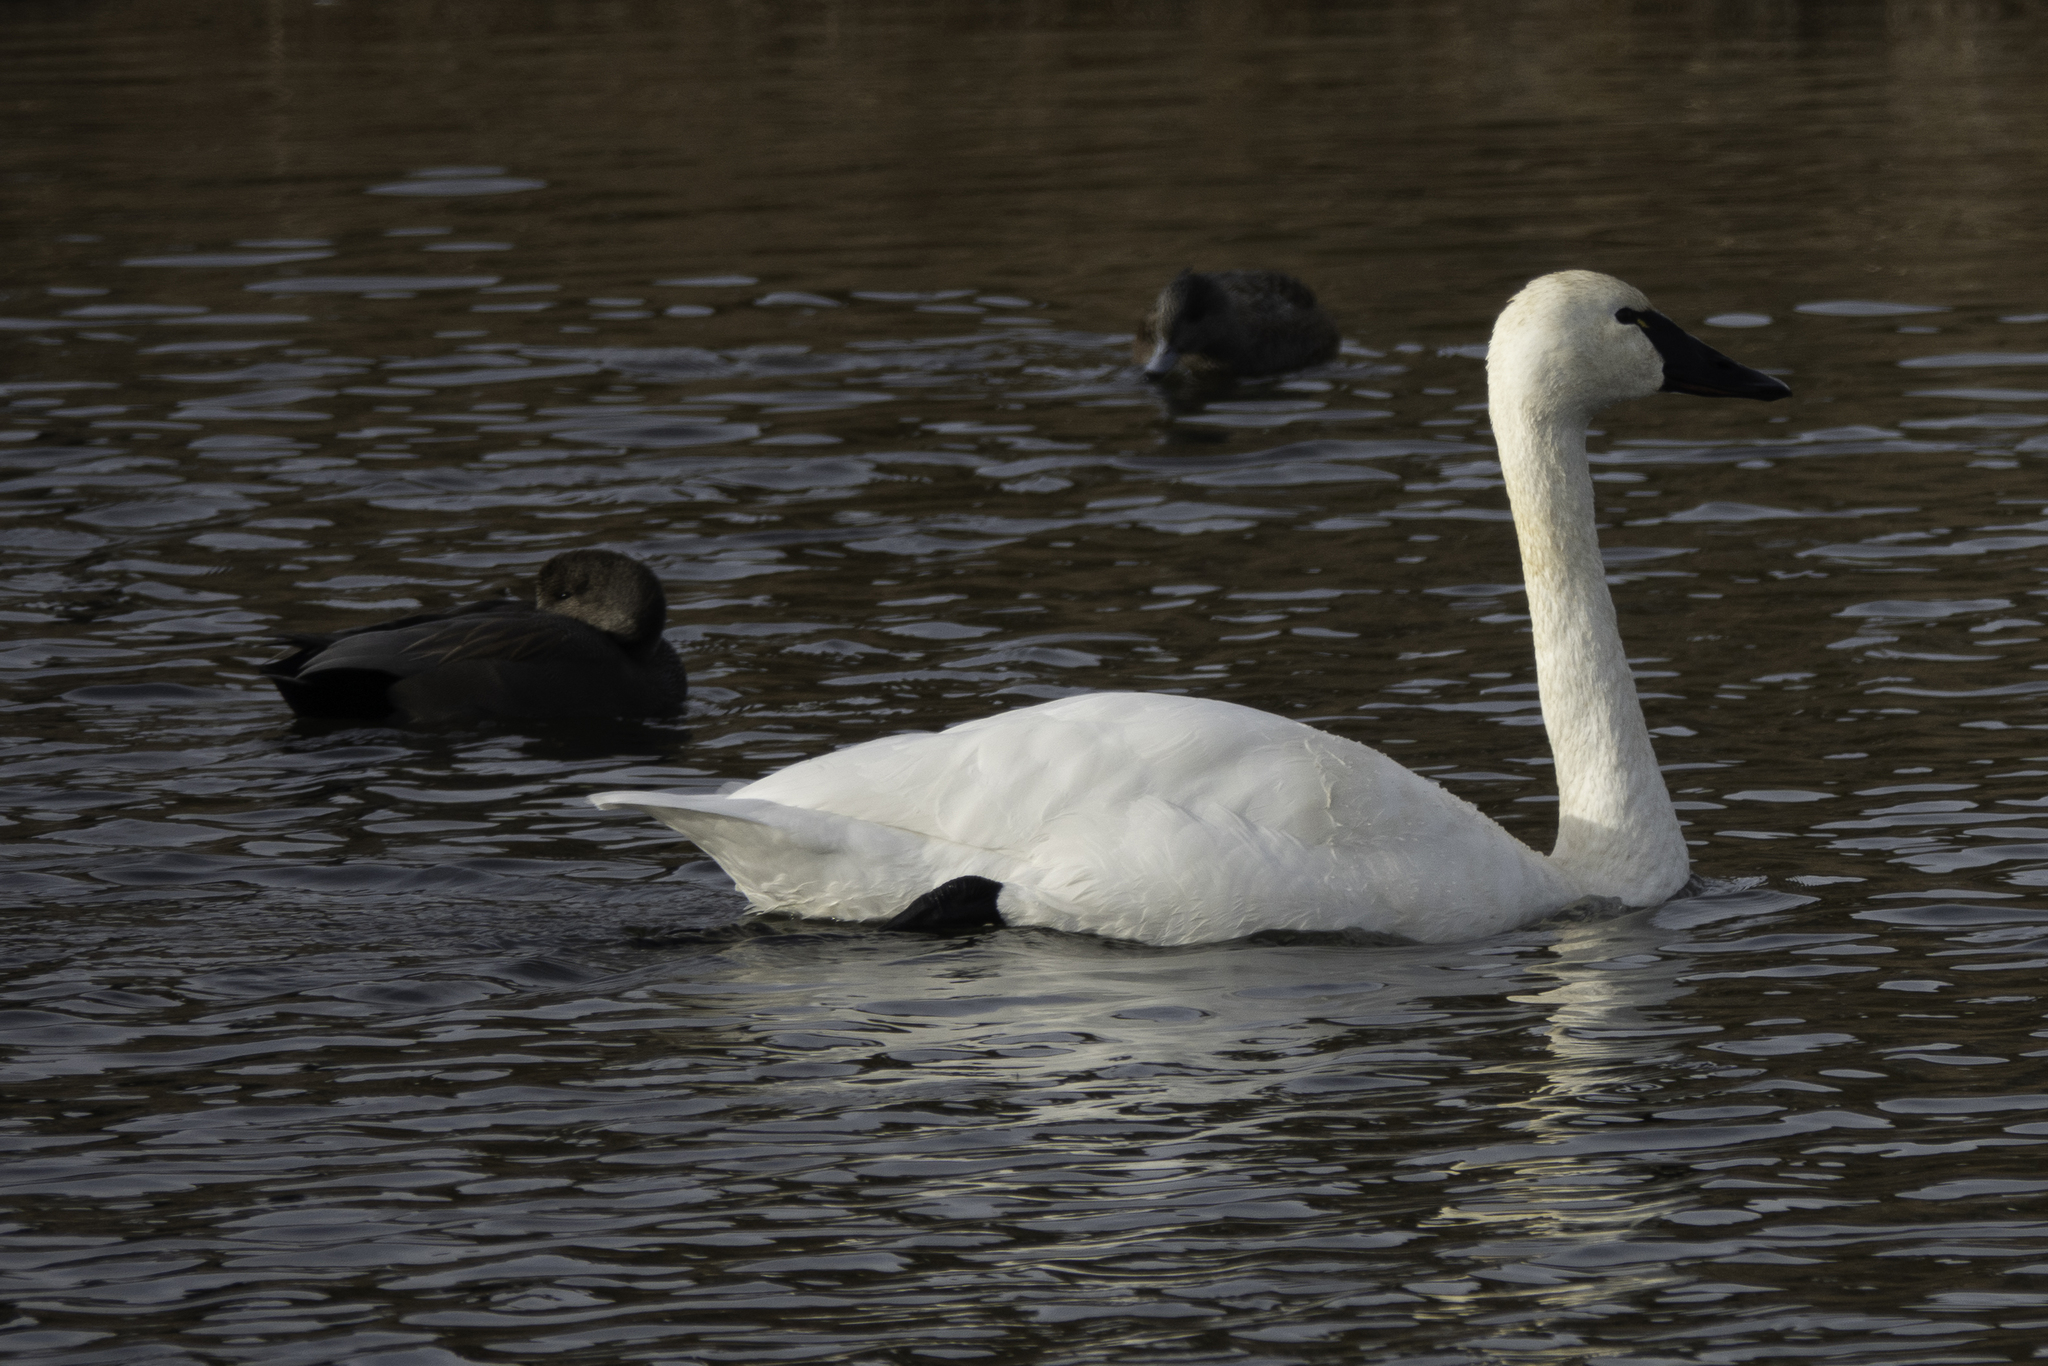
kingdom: Animalia
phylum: Chordata
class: Aves
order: Anseriformes
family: Anatidae
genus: Mareca
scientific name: Mareca strepera
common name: Gadwall
